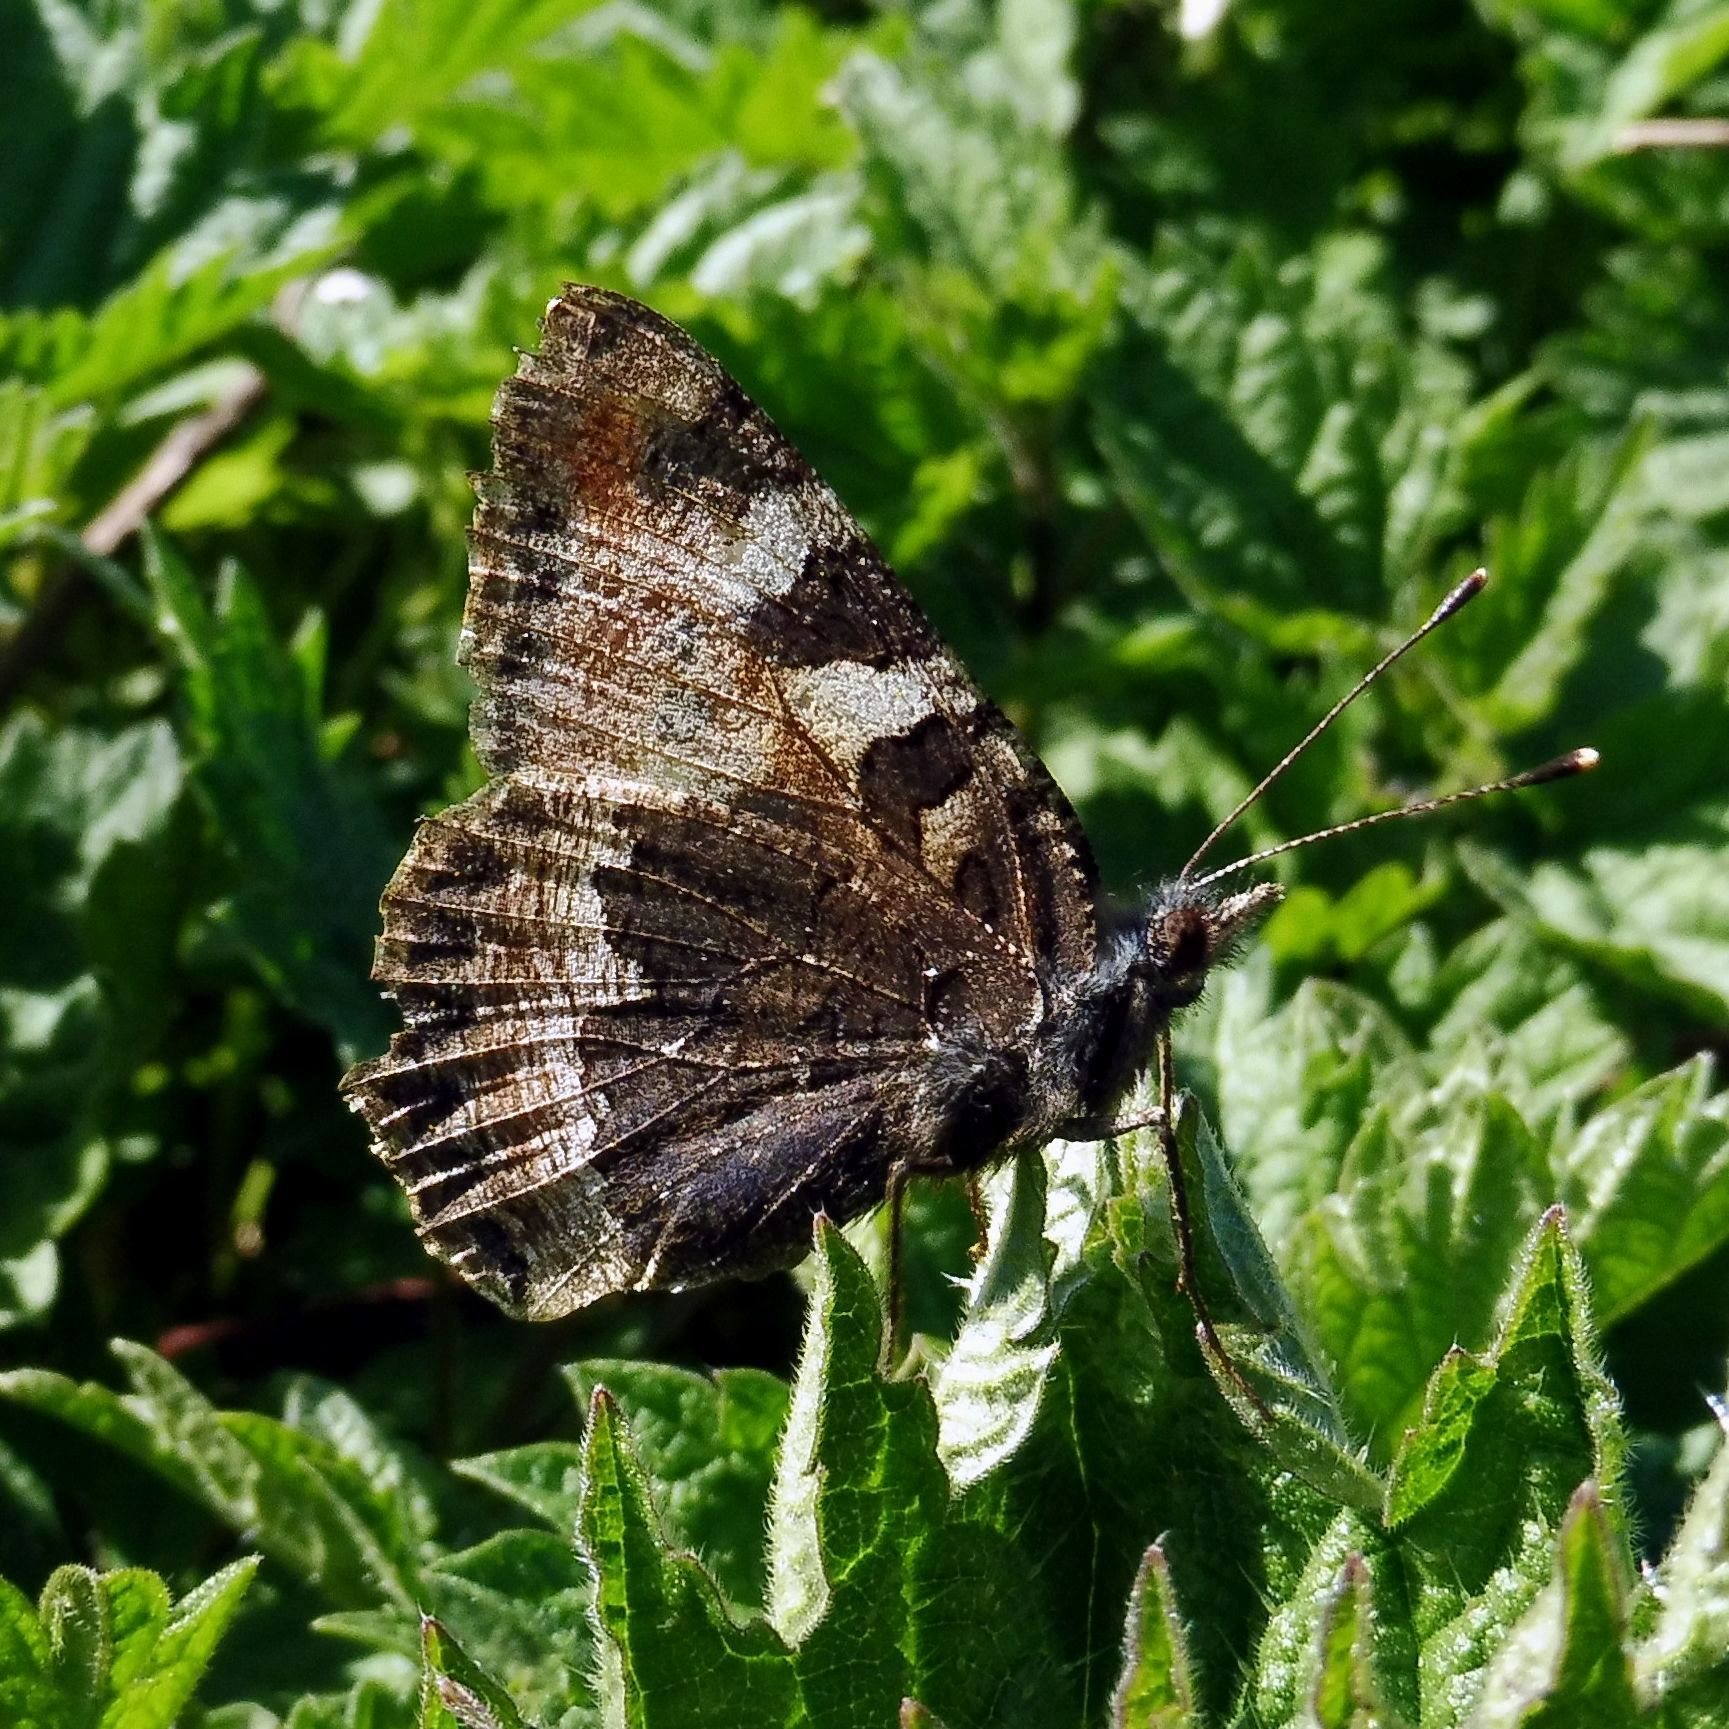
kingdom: Animalia
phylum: Arthropoda
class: Insecta
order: Lepidoptera
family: Nymphalidae
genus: Aglais
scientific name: Aglais urticae
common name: Small tortoiseshell
